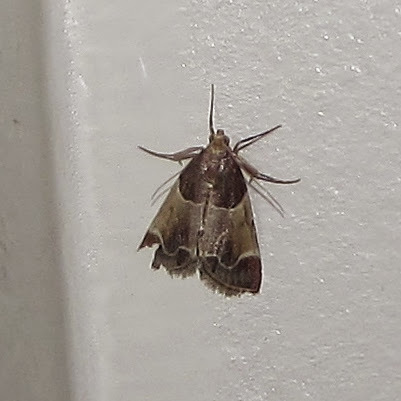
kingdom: Animalia
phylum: Arthropoda
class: Insecta
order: Lepidoptera
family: Pyralidae
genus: Pyralis
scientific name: Pyralis farinalis
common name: Meal moth
